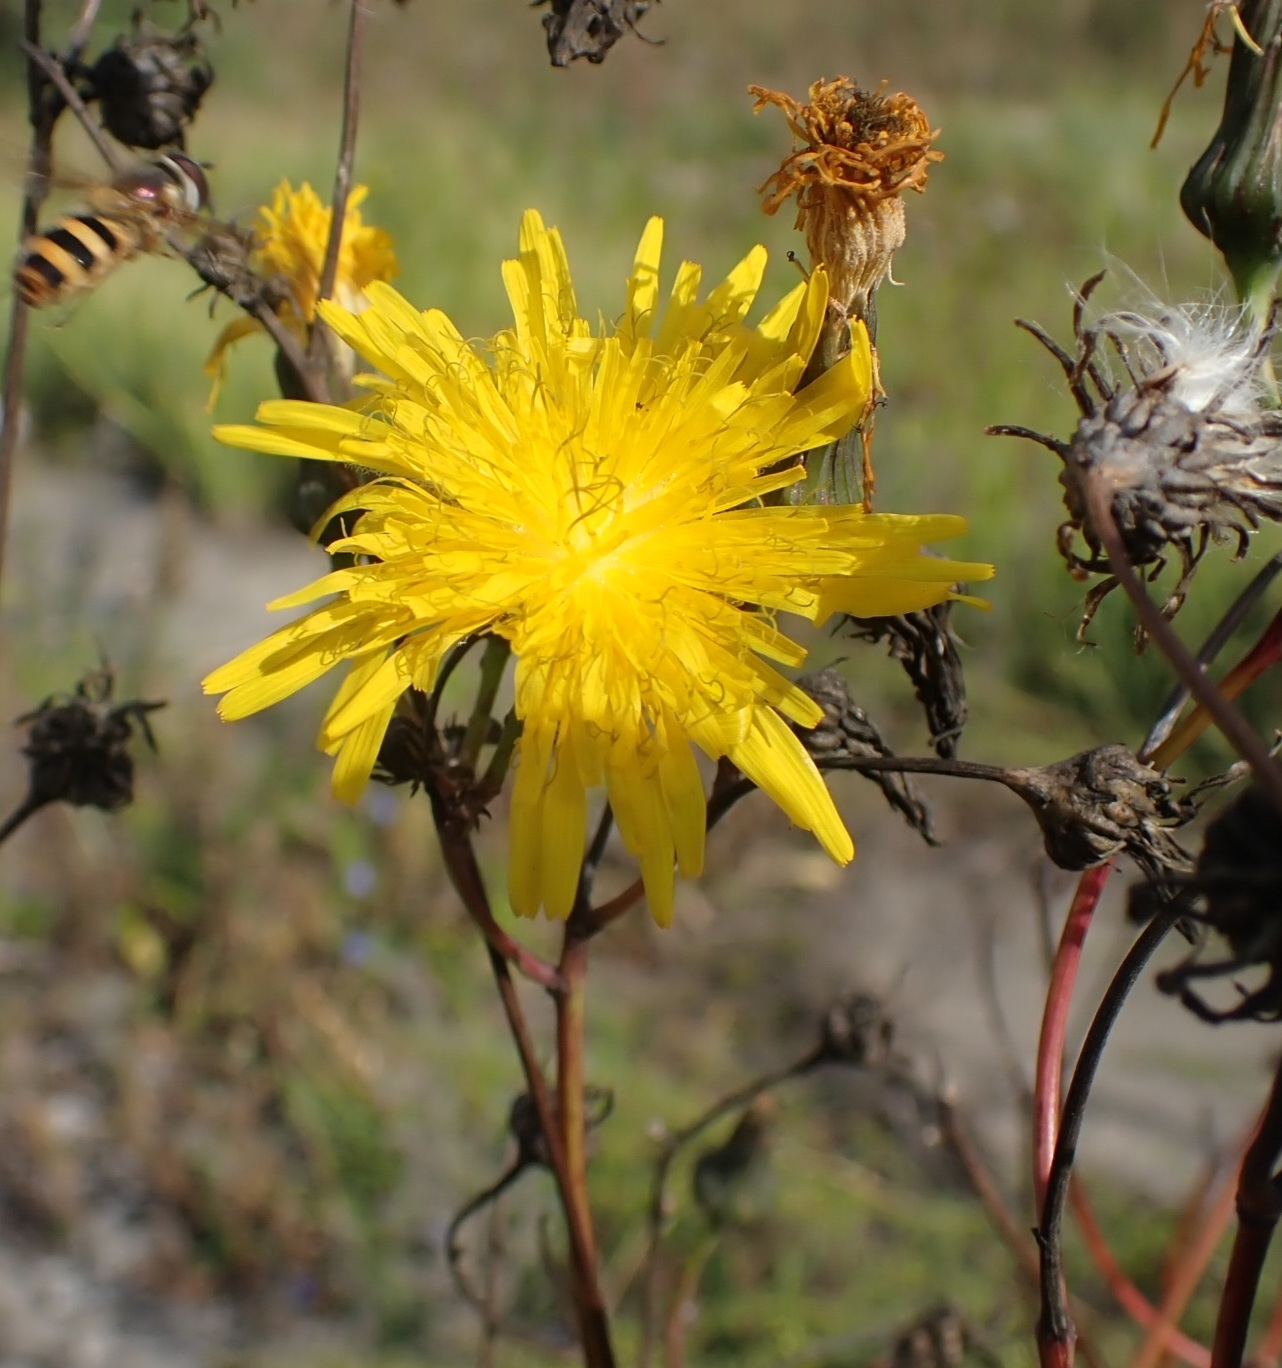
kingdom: Plantae
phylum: Tracheophyta
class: Magnoliopsida
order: Asterales
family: Asteraceae
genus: Sonchus
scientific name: Sonchus arvensis
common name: Perennial sow-thistle
